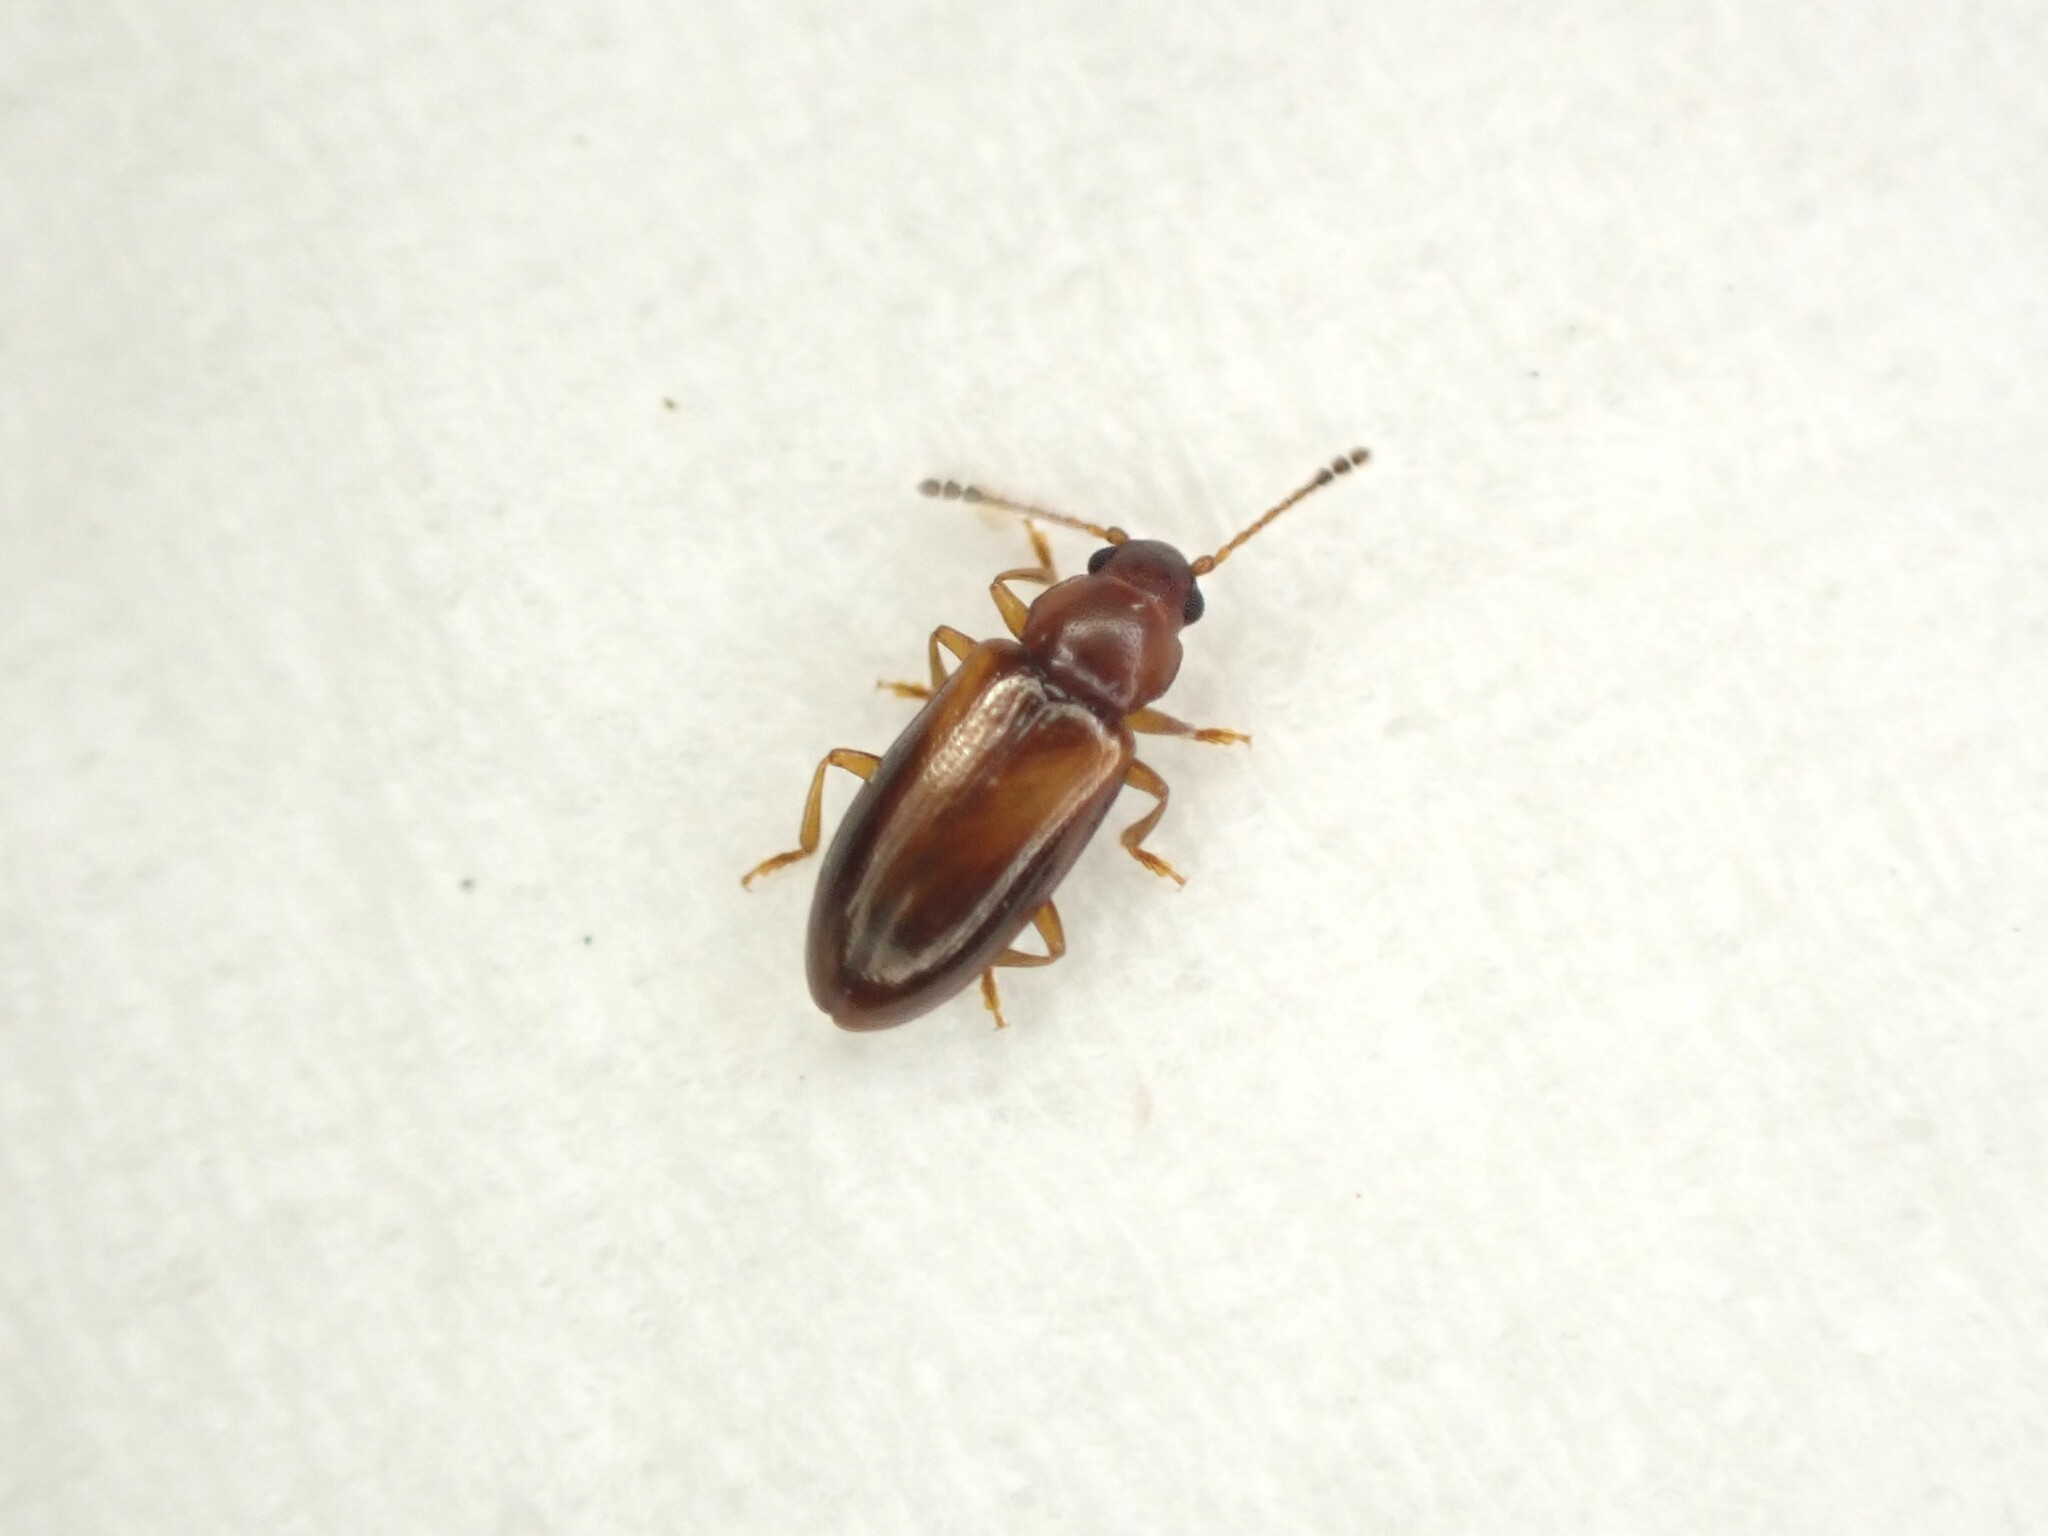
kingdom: Animalia
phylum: Arthropoda
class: Insecta
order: Coleoptera
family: Erotylidae
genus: Loberus
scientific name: Loberus depressus
